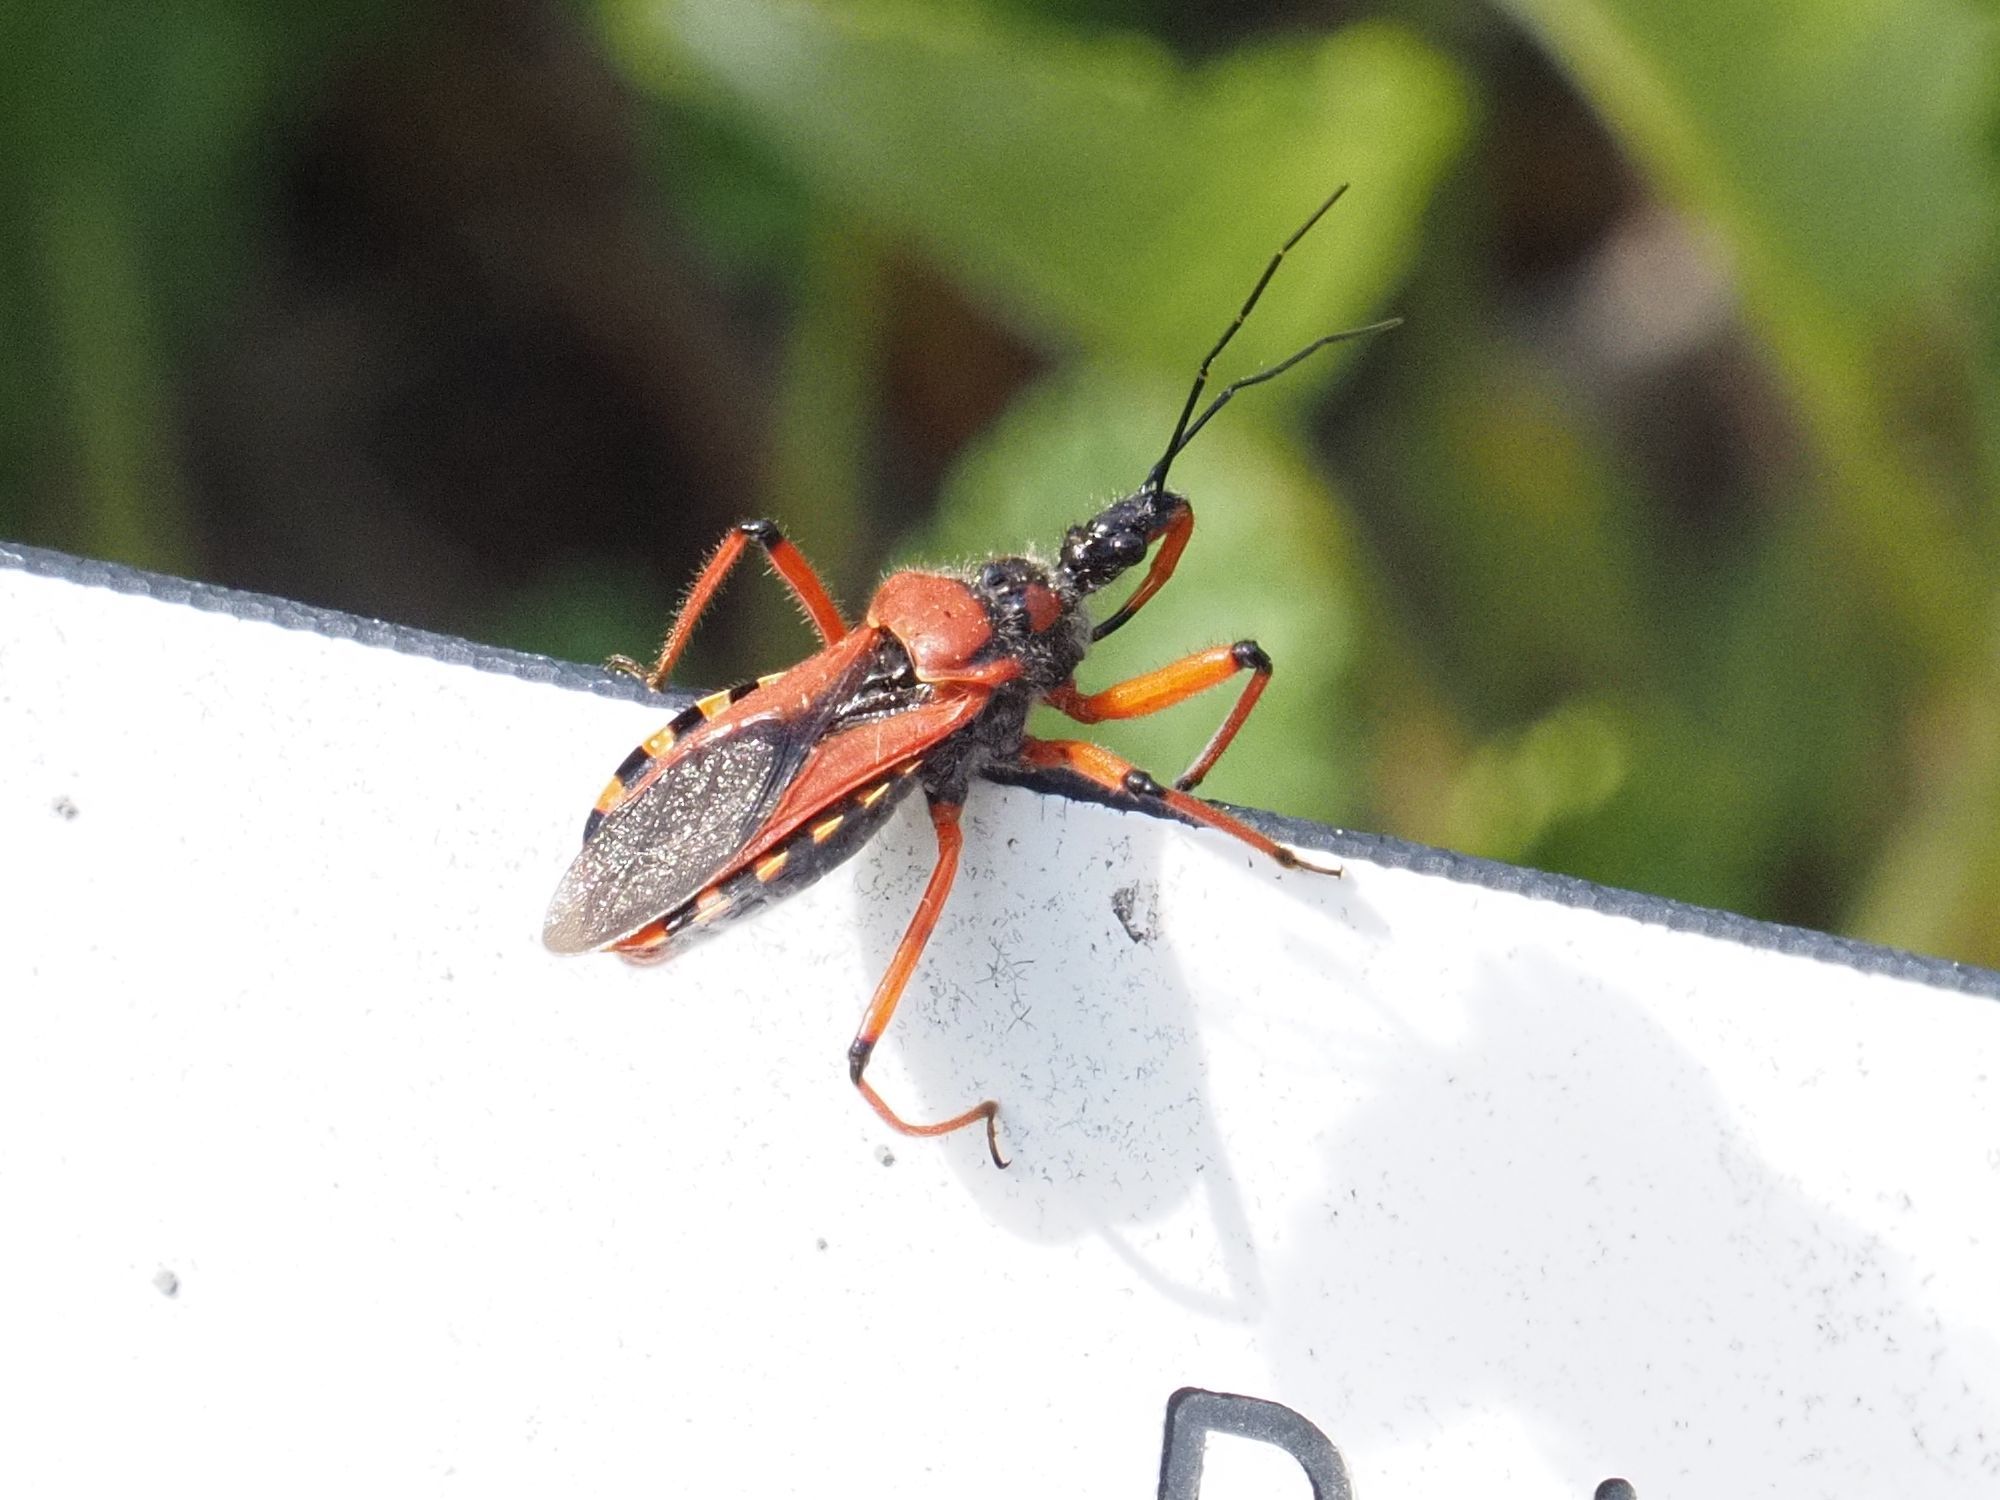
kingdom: Animalia
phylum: Arthropoda
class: Insecta
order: Hemiptera
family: Reduviidae
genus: Rhynocoris
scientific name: Rhynocoris iracundus
